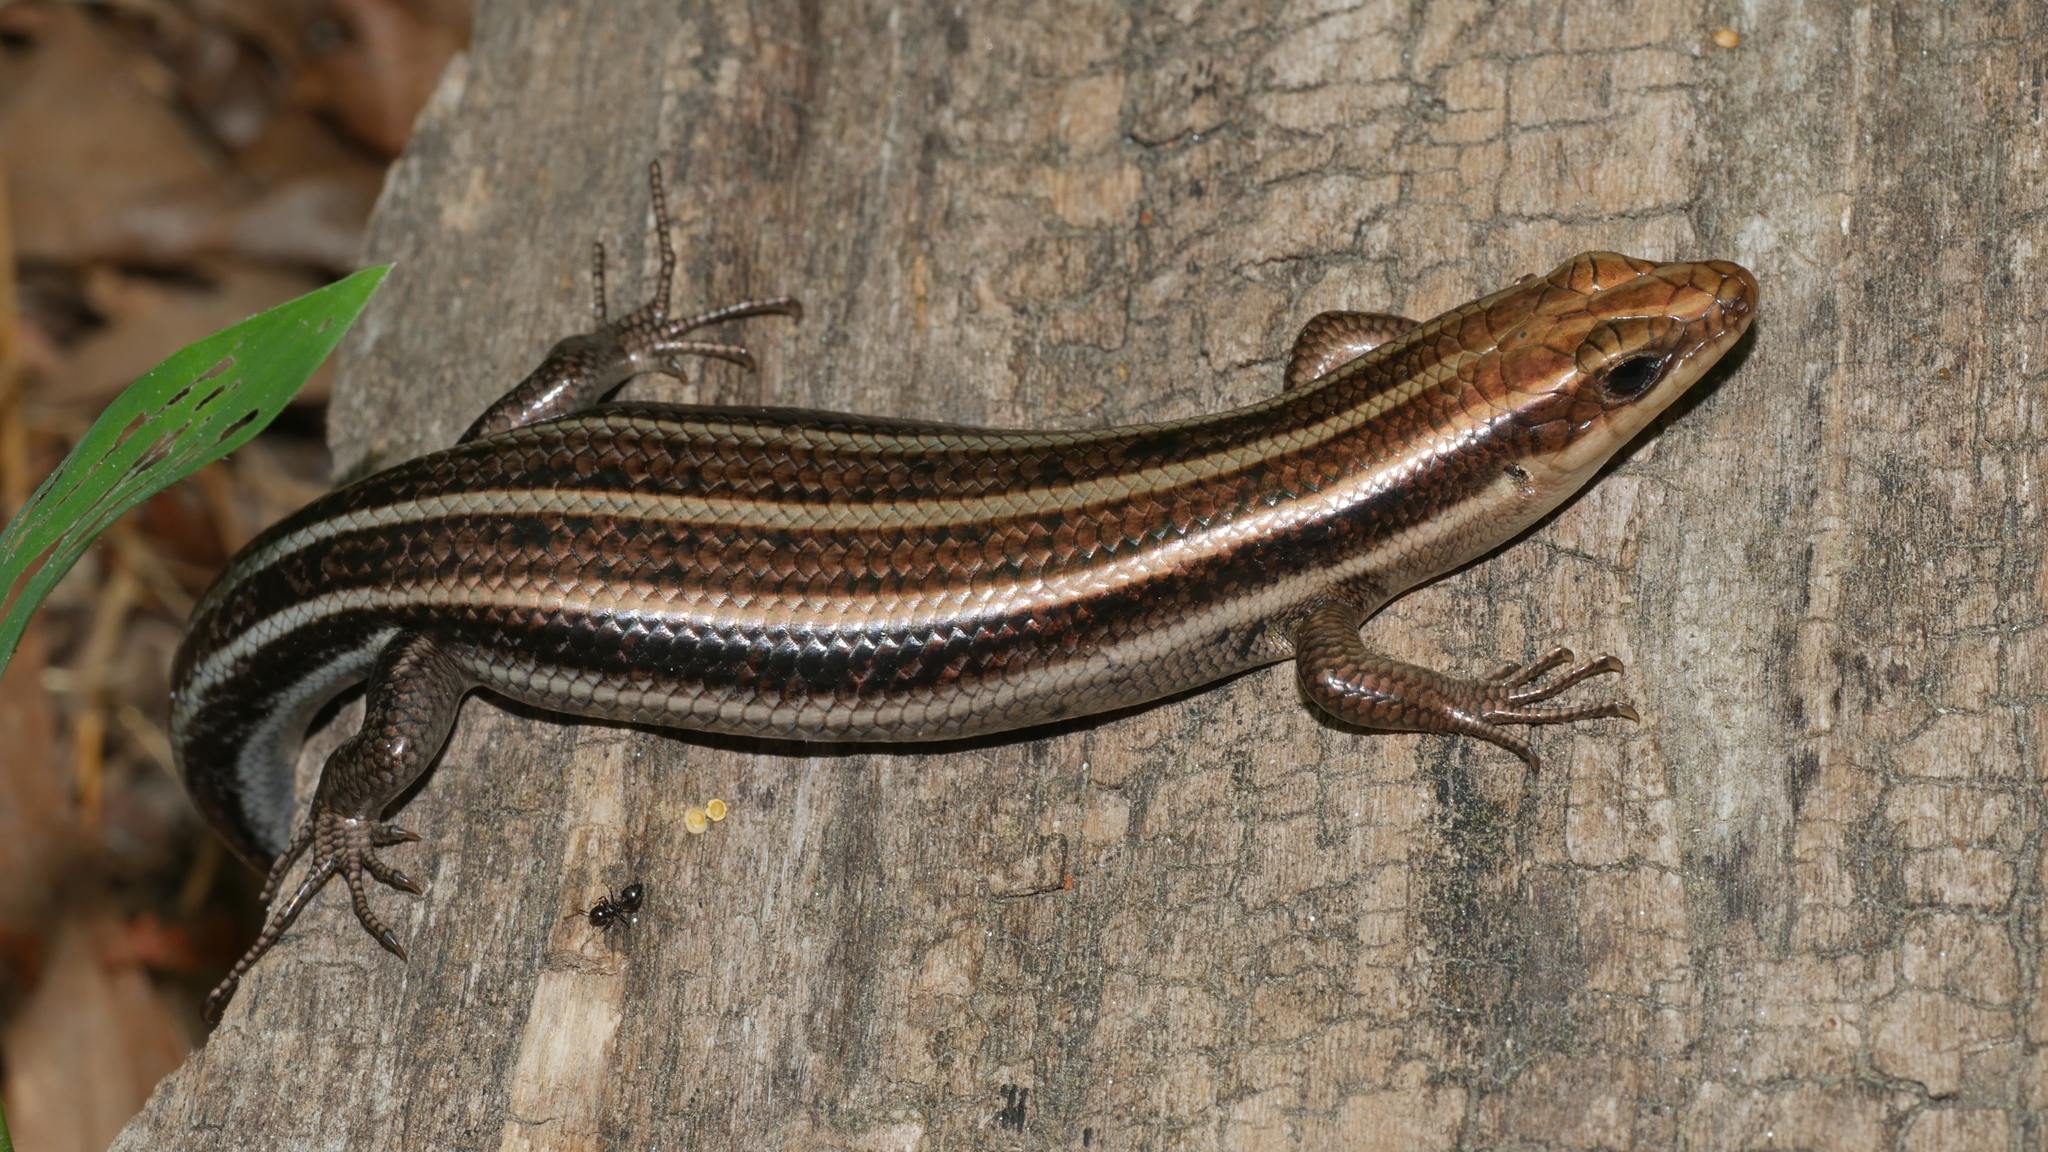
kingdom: Animalia
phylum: Chordata
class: Squamata
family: Scincidae
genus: Plestiodon
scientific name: Plestiodon fasciatus
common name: Five-lined skink
